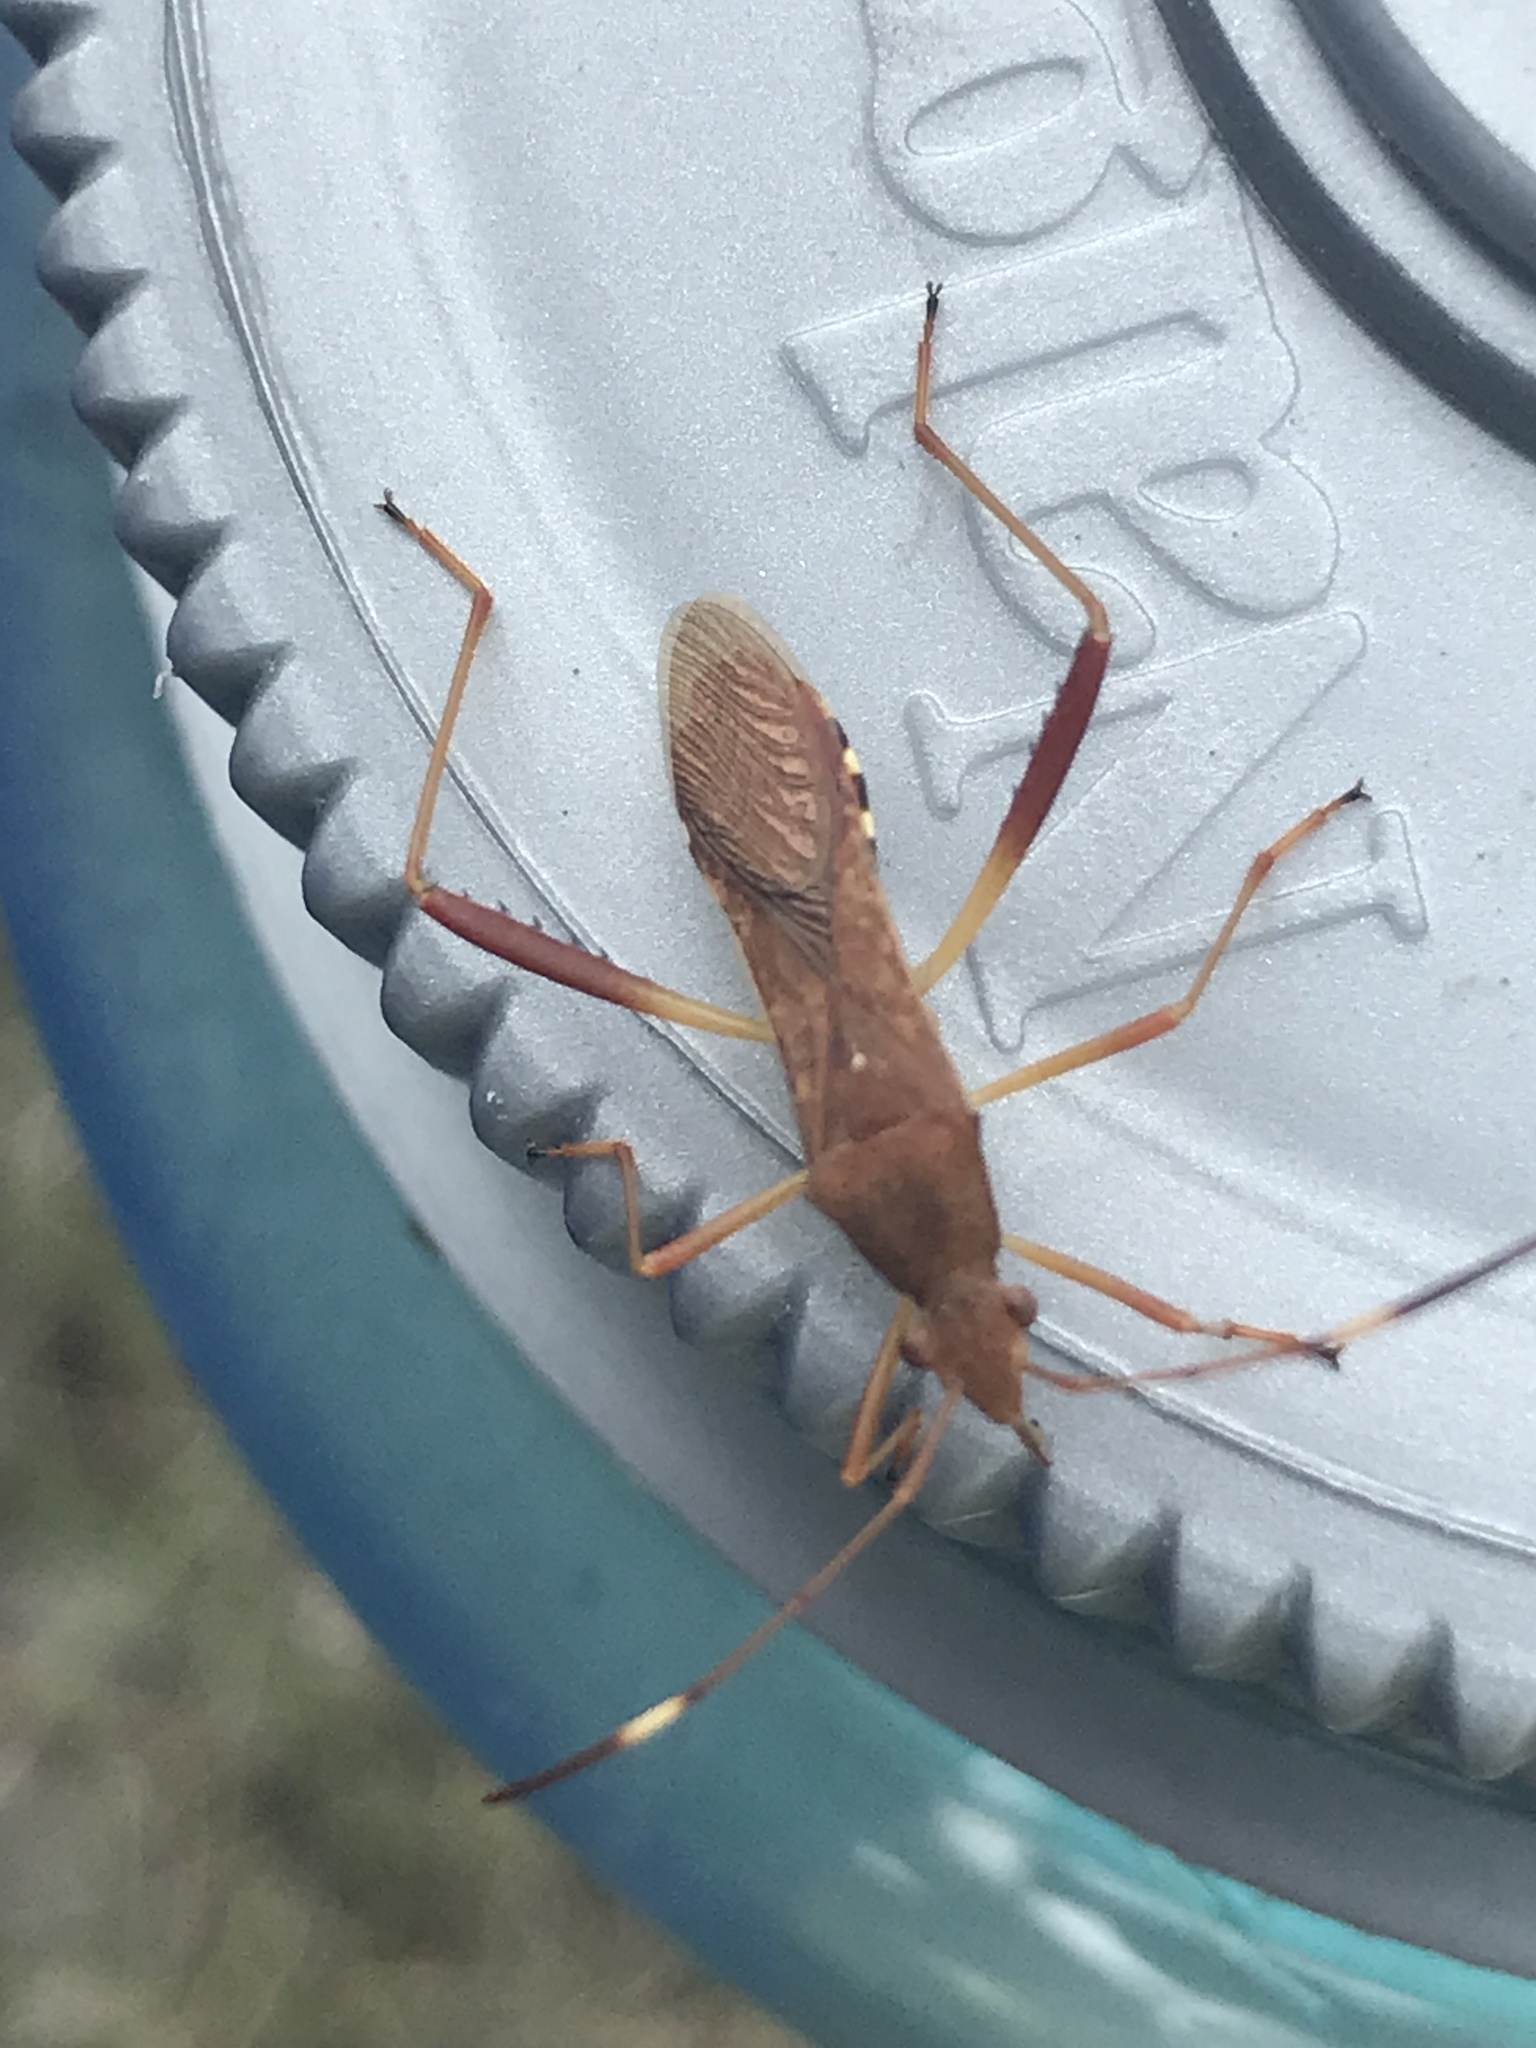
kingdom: Animalia
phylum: Arthropoda
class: Insecta
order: Hemiptera
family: Alydidae
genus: Megalotomus
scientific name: Megalotomus quinquespinosus
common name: Lupine bug
